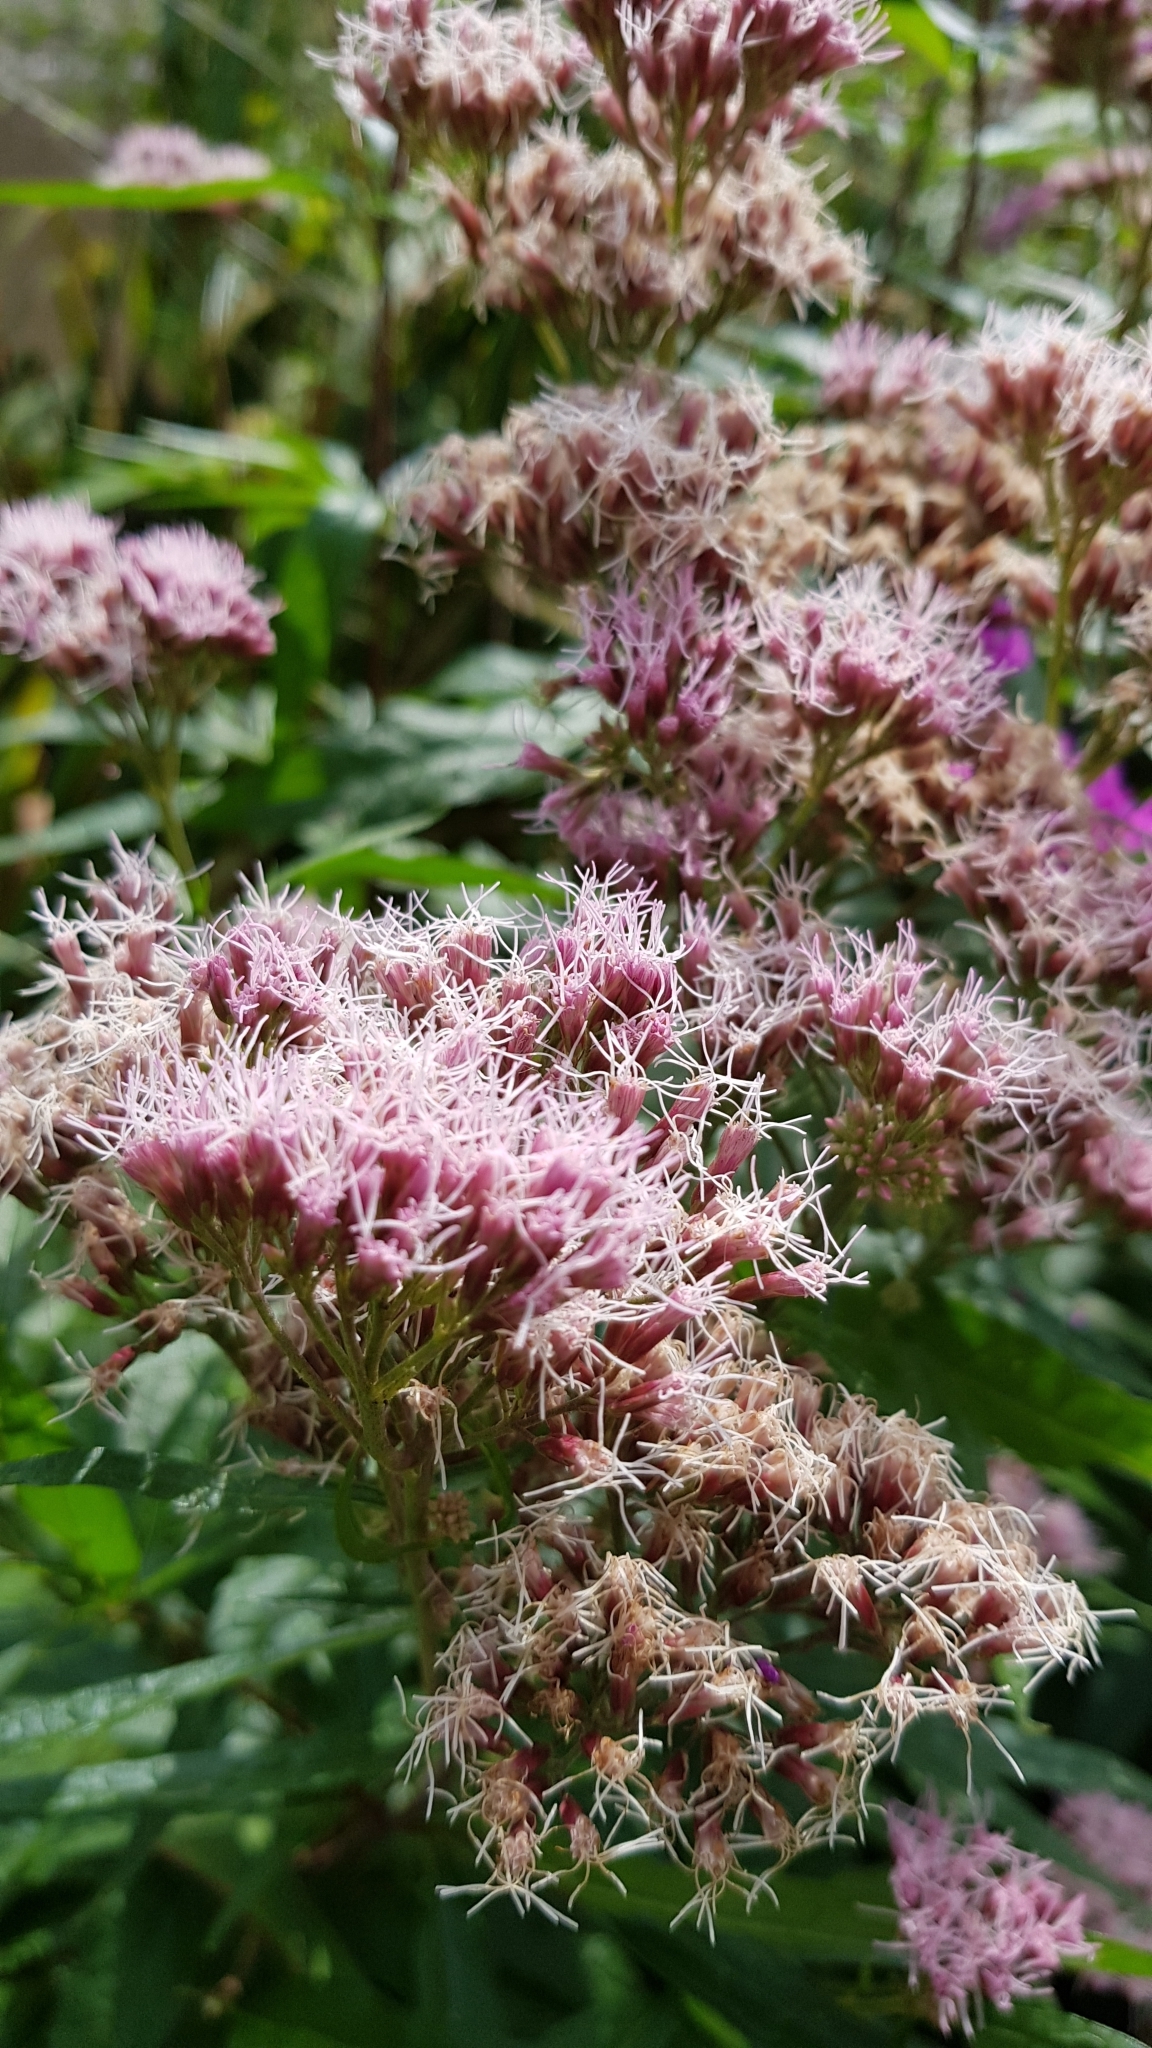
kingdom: Plantae
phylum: Tracheophyta
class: Magnoliopsida
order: Asterales
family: Asteraceae
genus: Eupatorium
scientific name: Eupatorium cannabinum
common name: Hemp-agrimony
